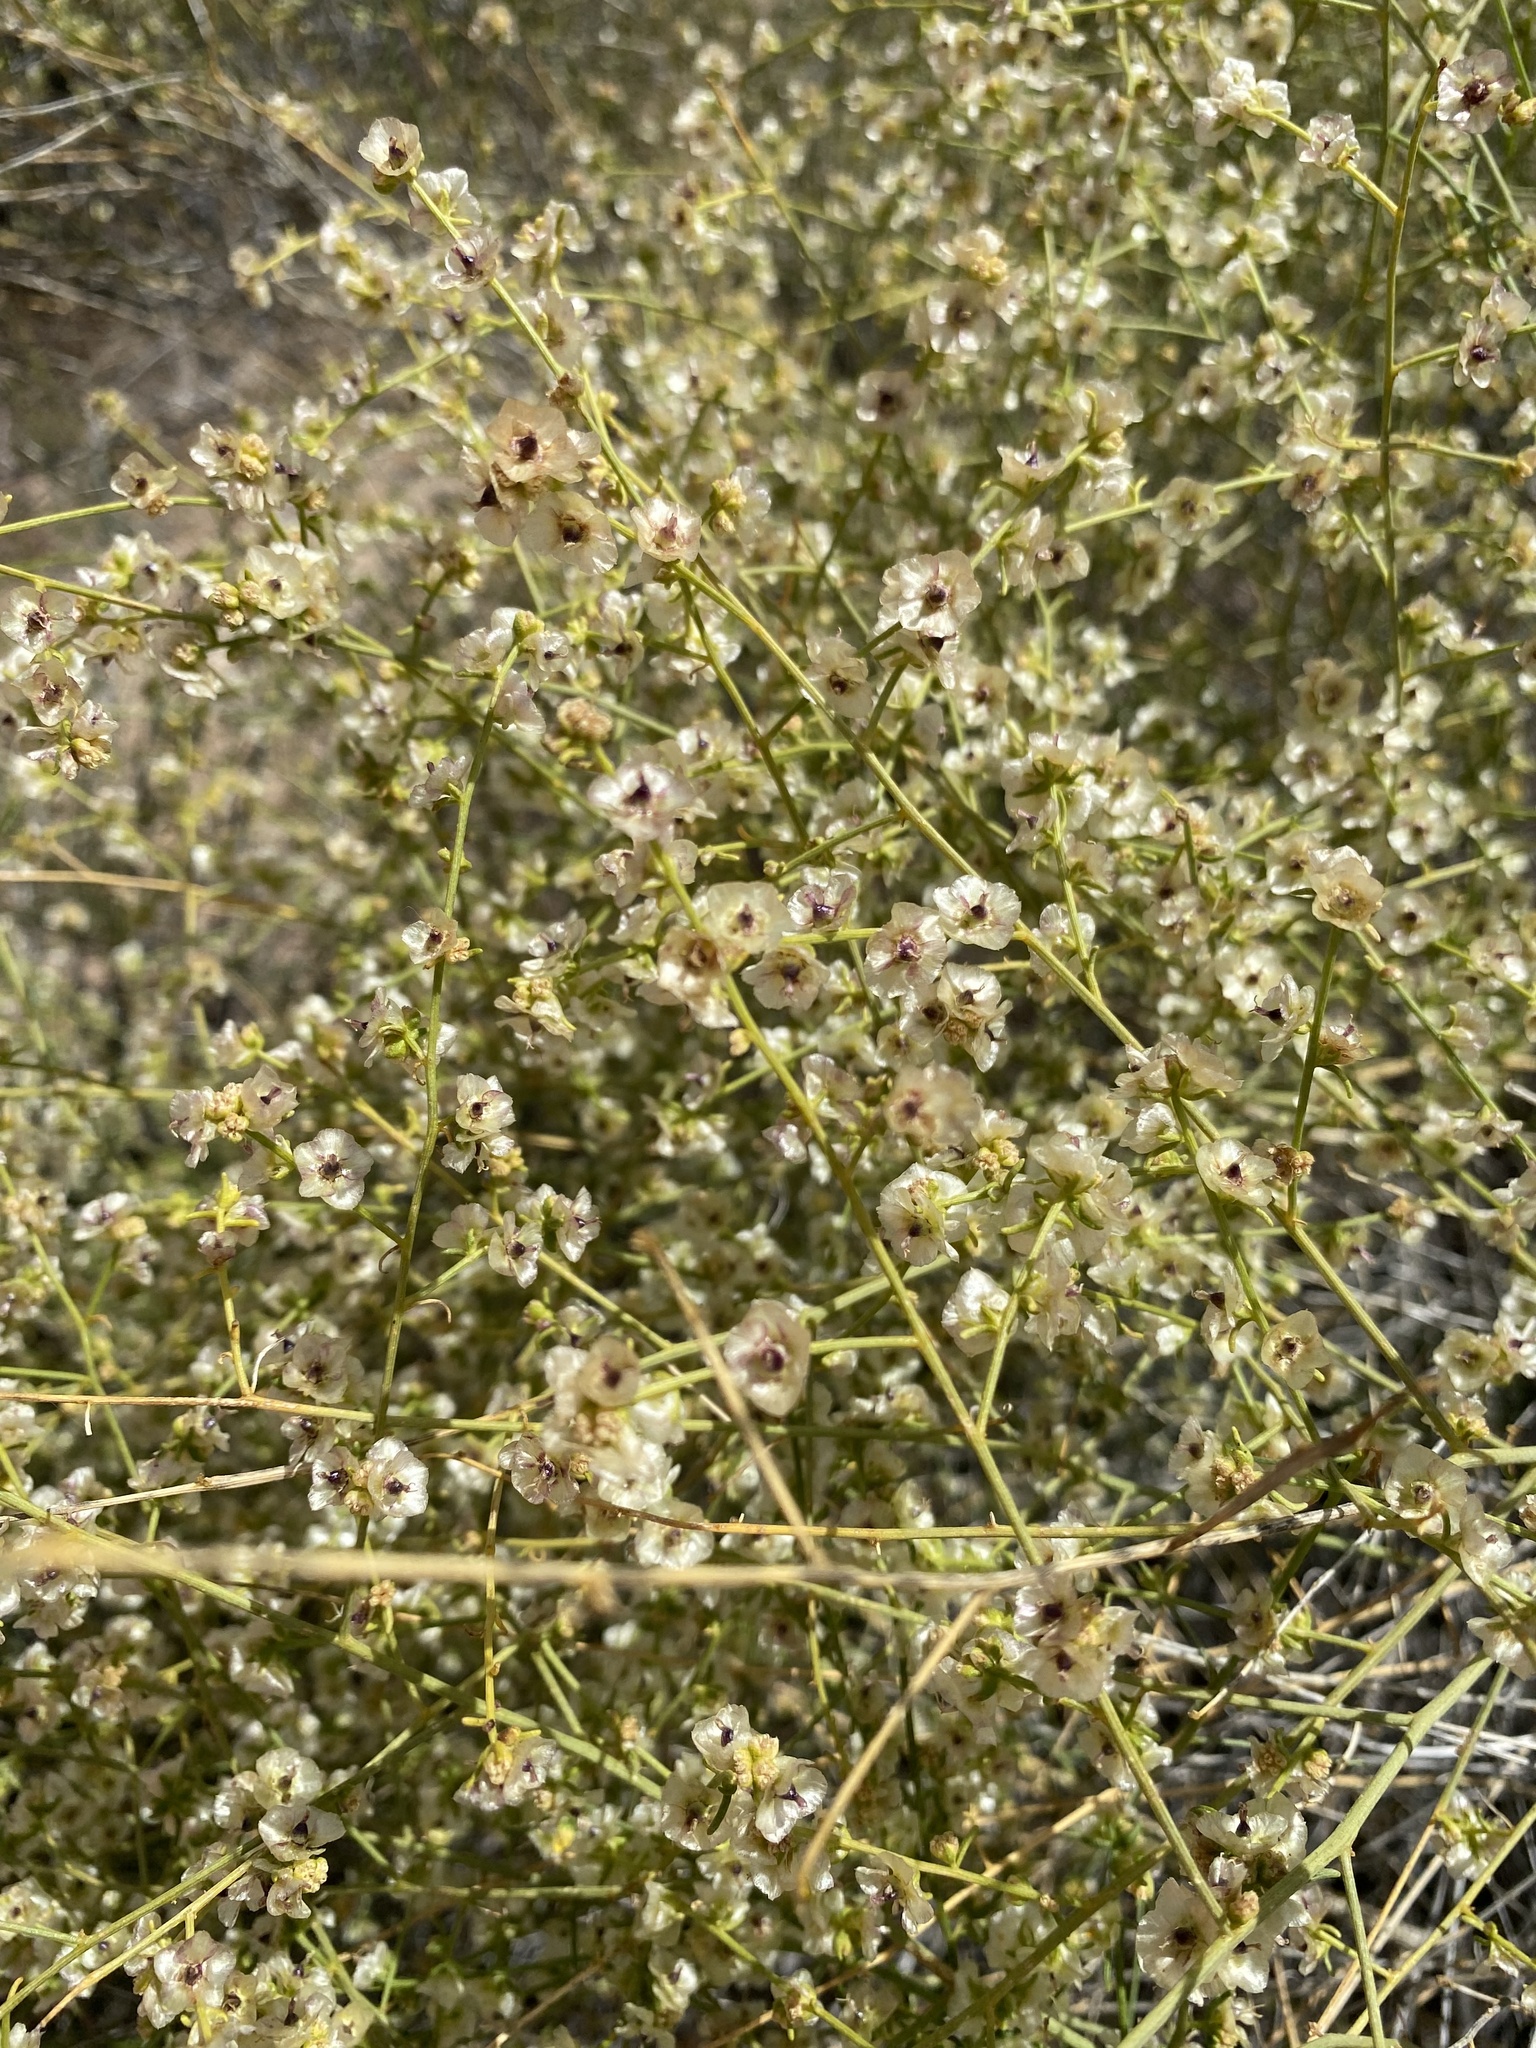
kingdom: Plantae
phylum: Tracheophyta
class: Magnoliopsida
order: Asterales
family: Asteraceae
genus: Ambrosia
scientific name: Ambrosia salsola
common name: Burrobrush
